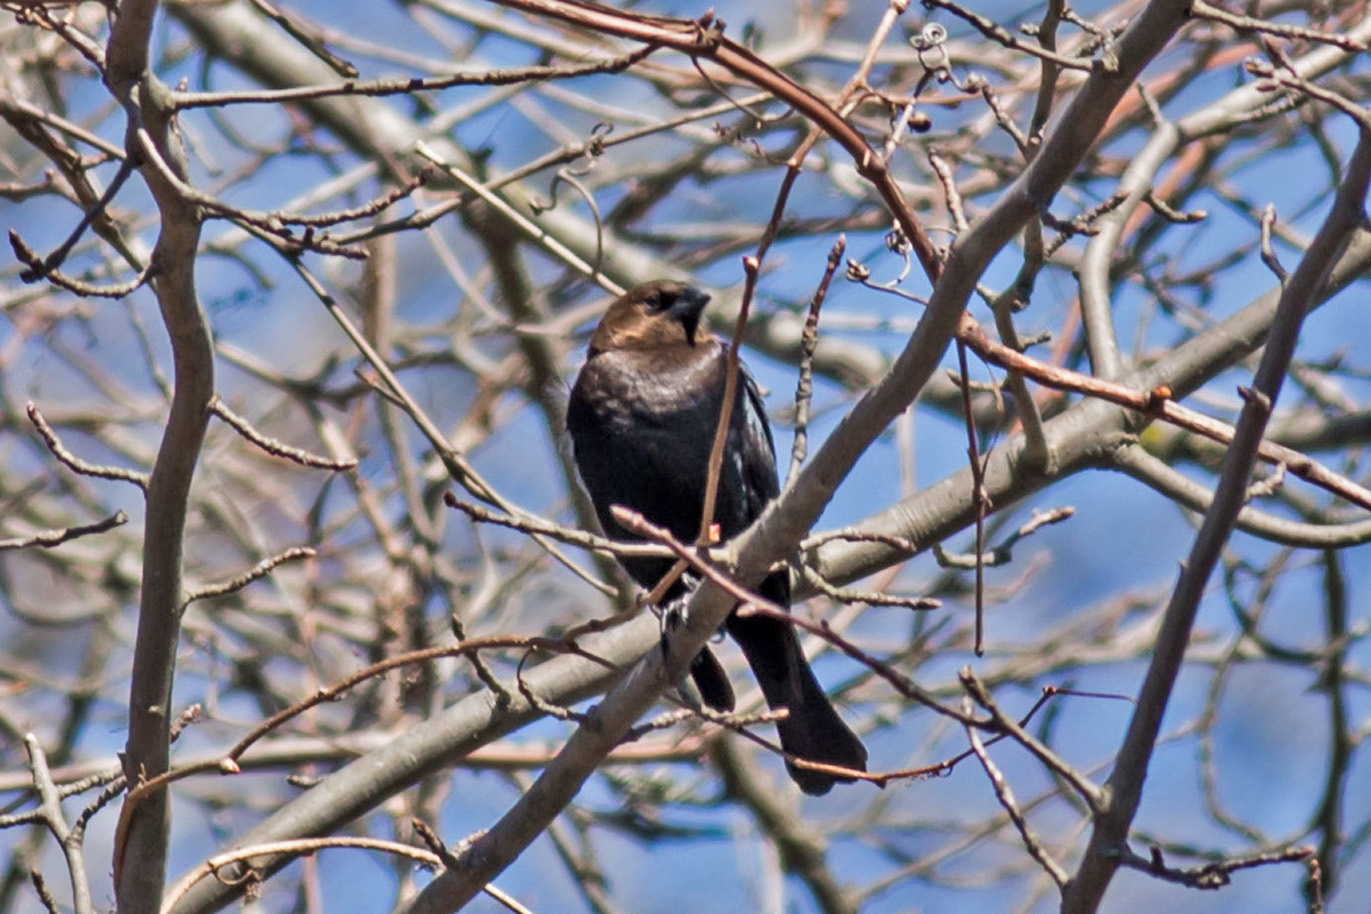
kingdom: Animalia
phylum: Chordata
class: Aves
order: Passeriformes
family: Icteridae
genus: Molothrus
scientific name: Molothrus ater
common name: Brown-headed cowbird
